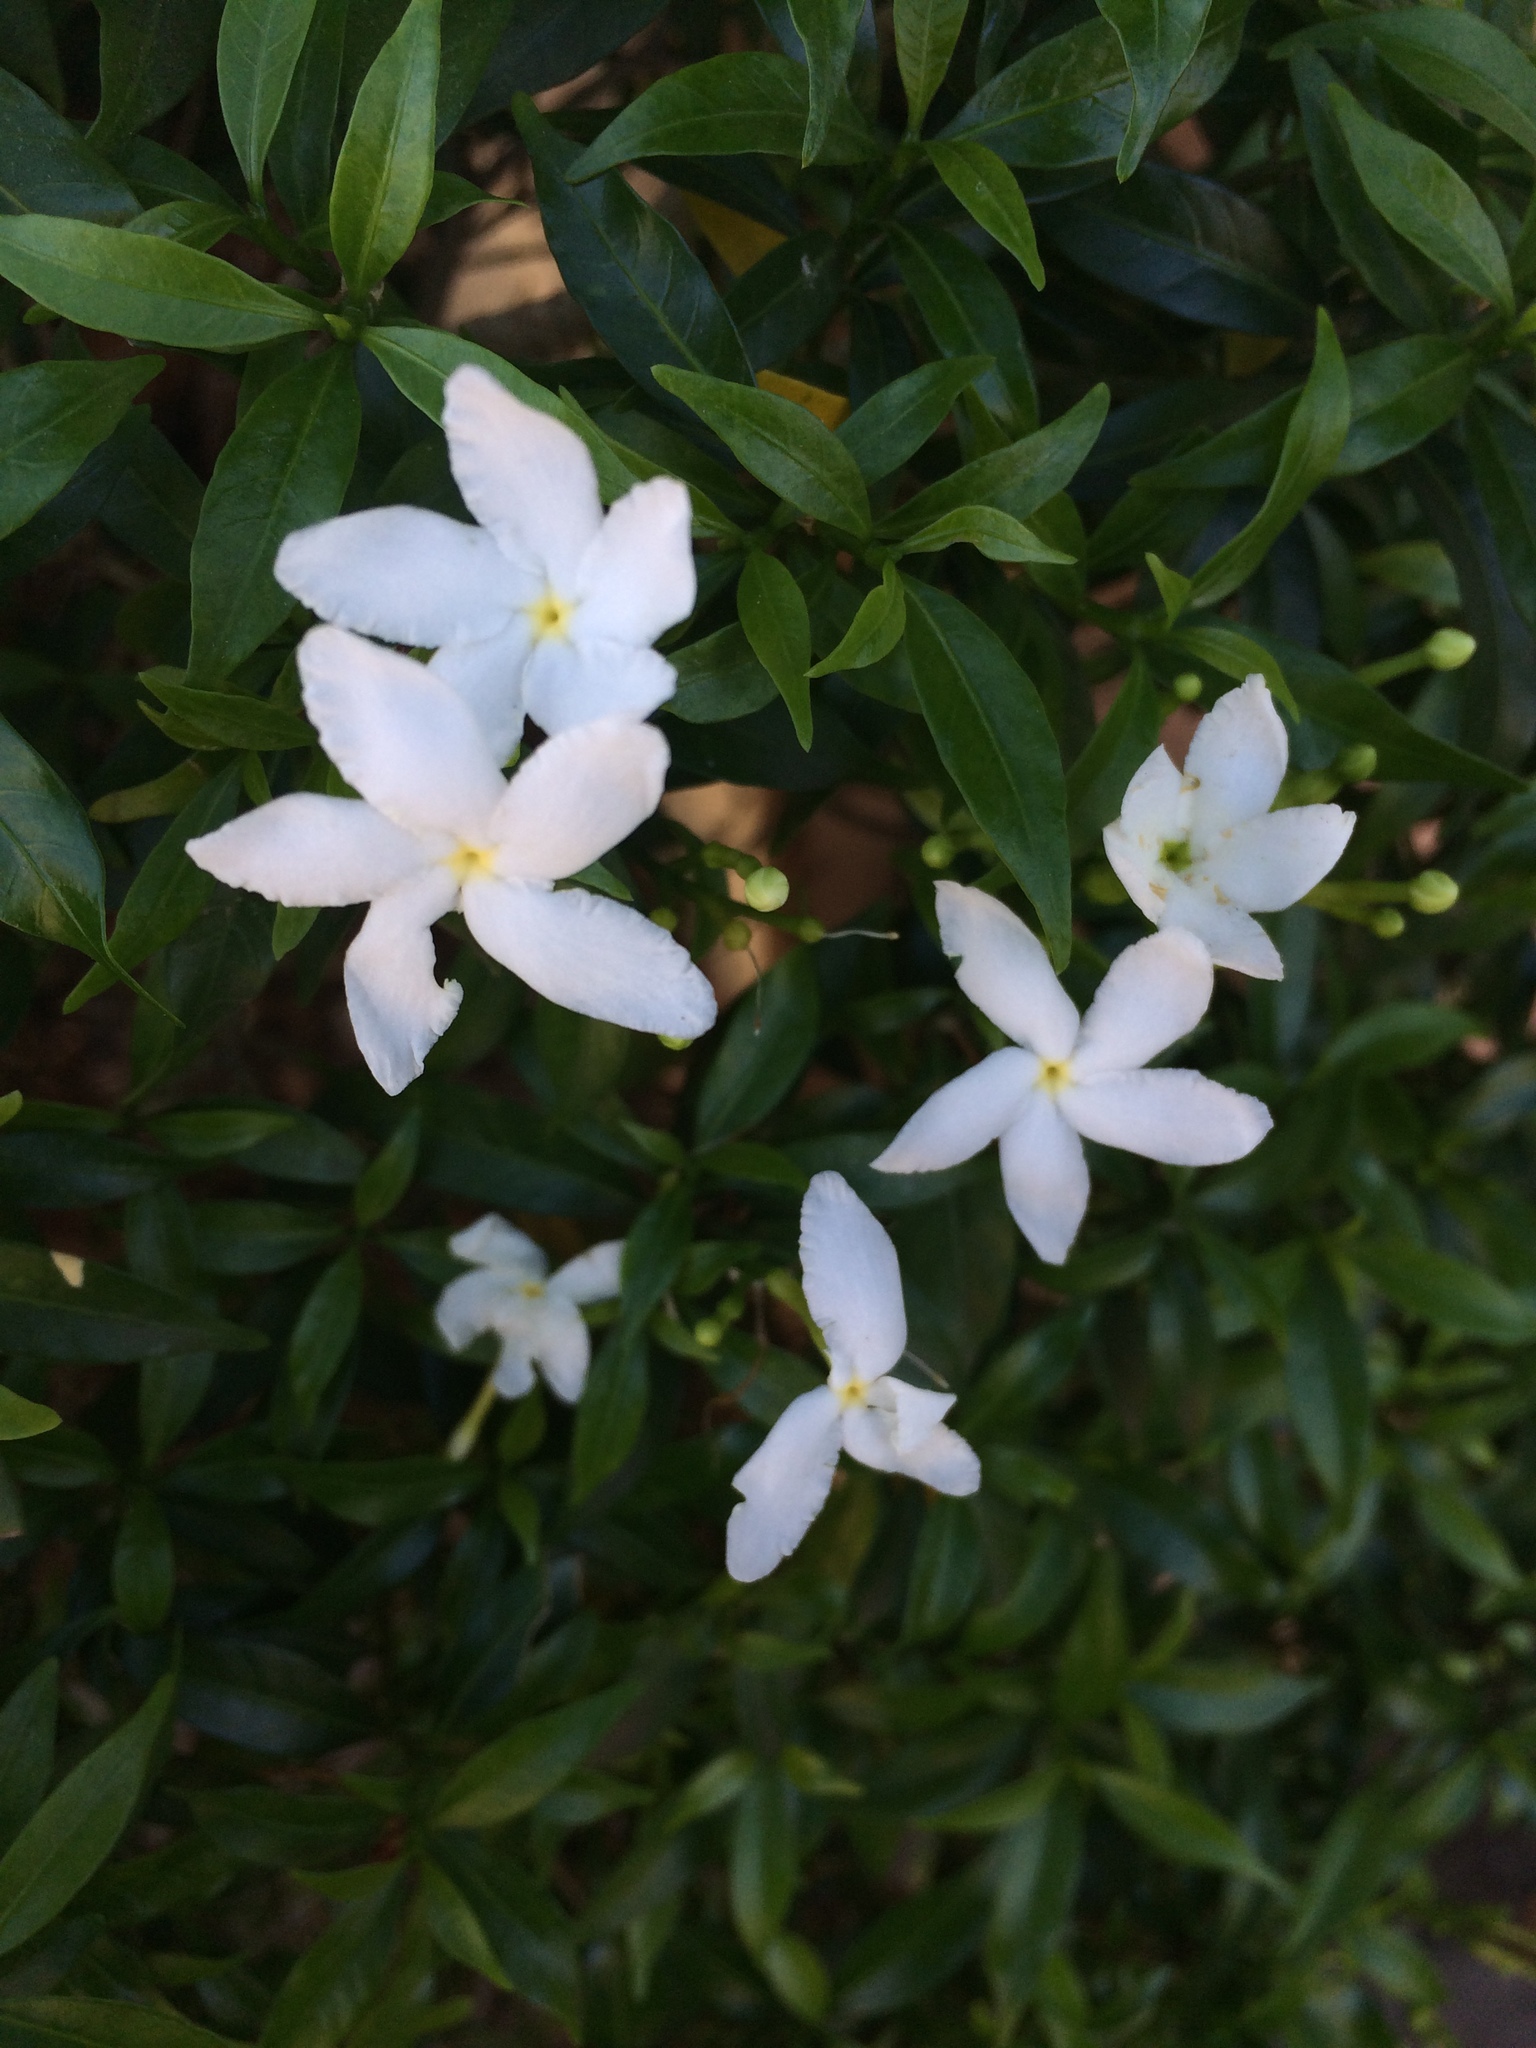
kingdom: Plantae
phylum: Tracheophyta
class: Magnoliopsida
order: Gentianales
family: Apocynaceae
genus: Tabernaemontana
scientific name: Tabernaemontana divaricata
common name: Pinwheelflower
